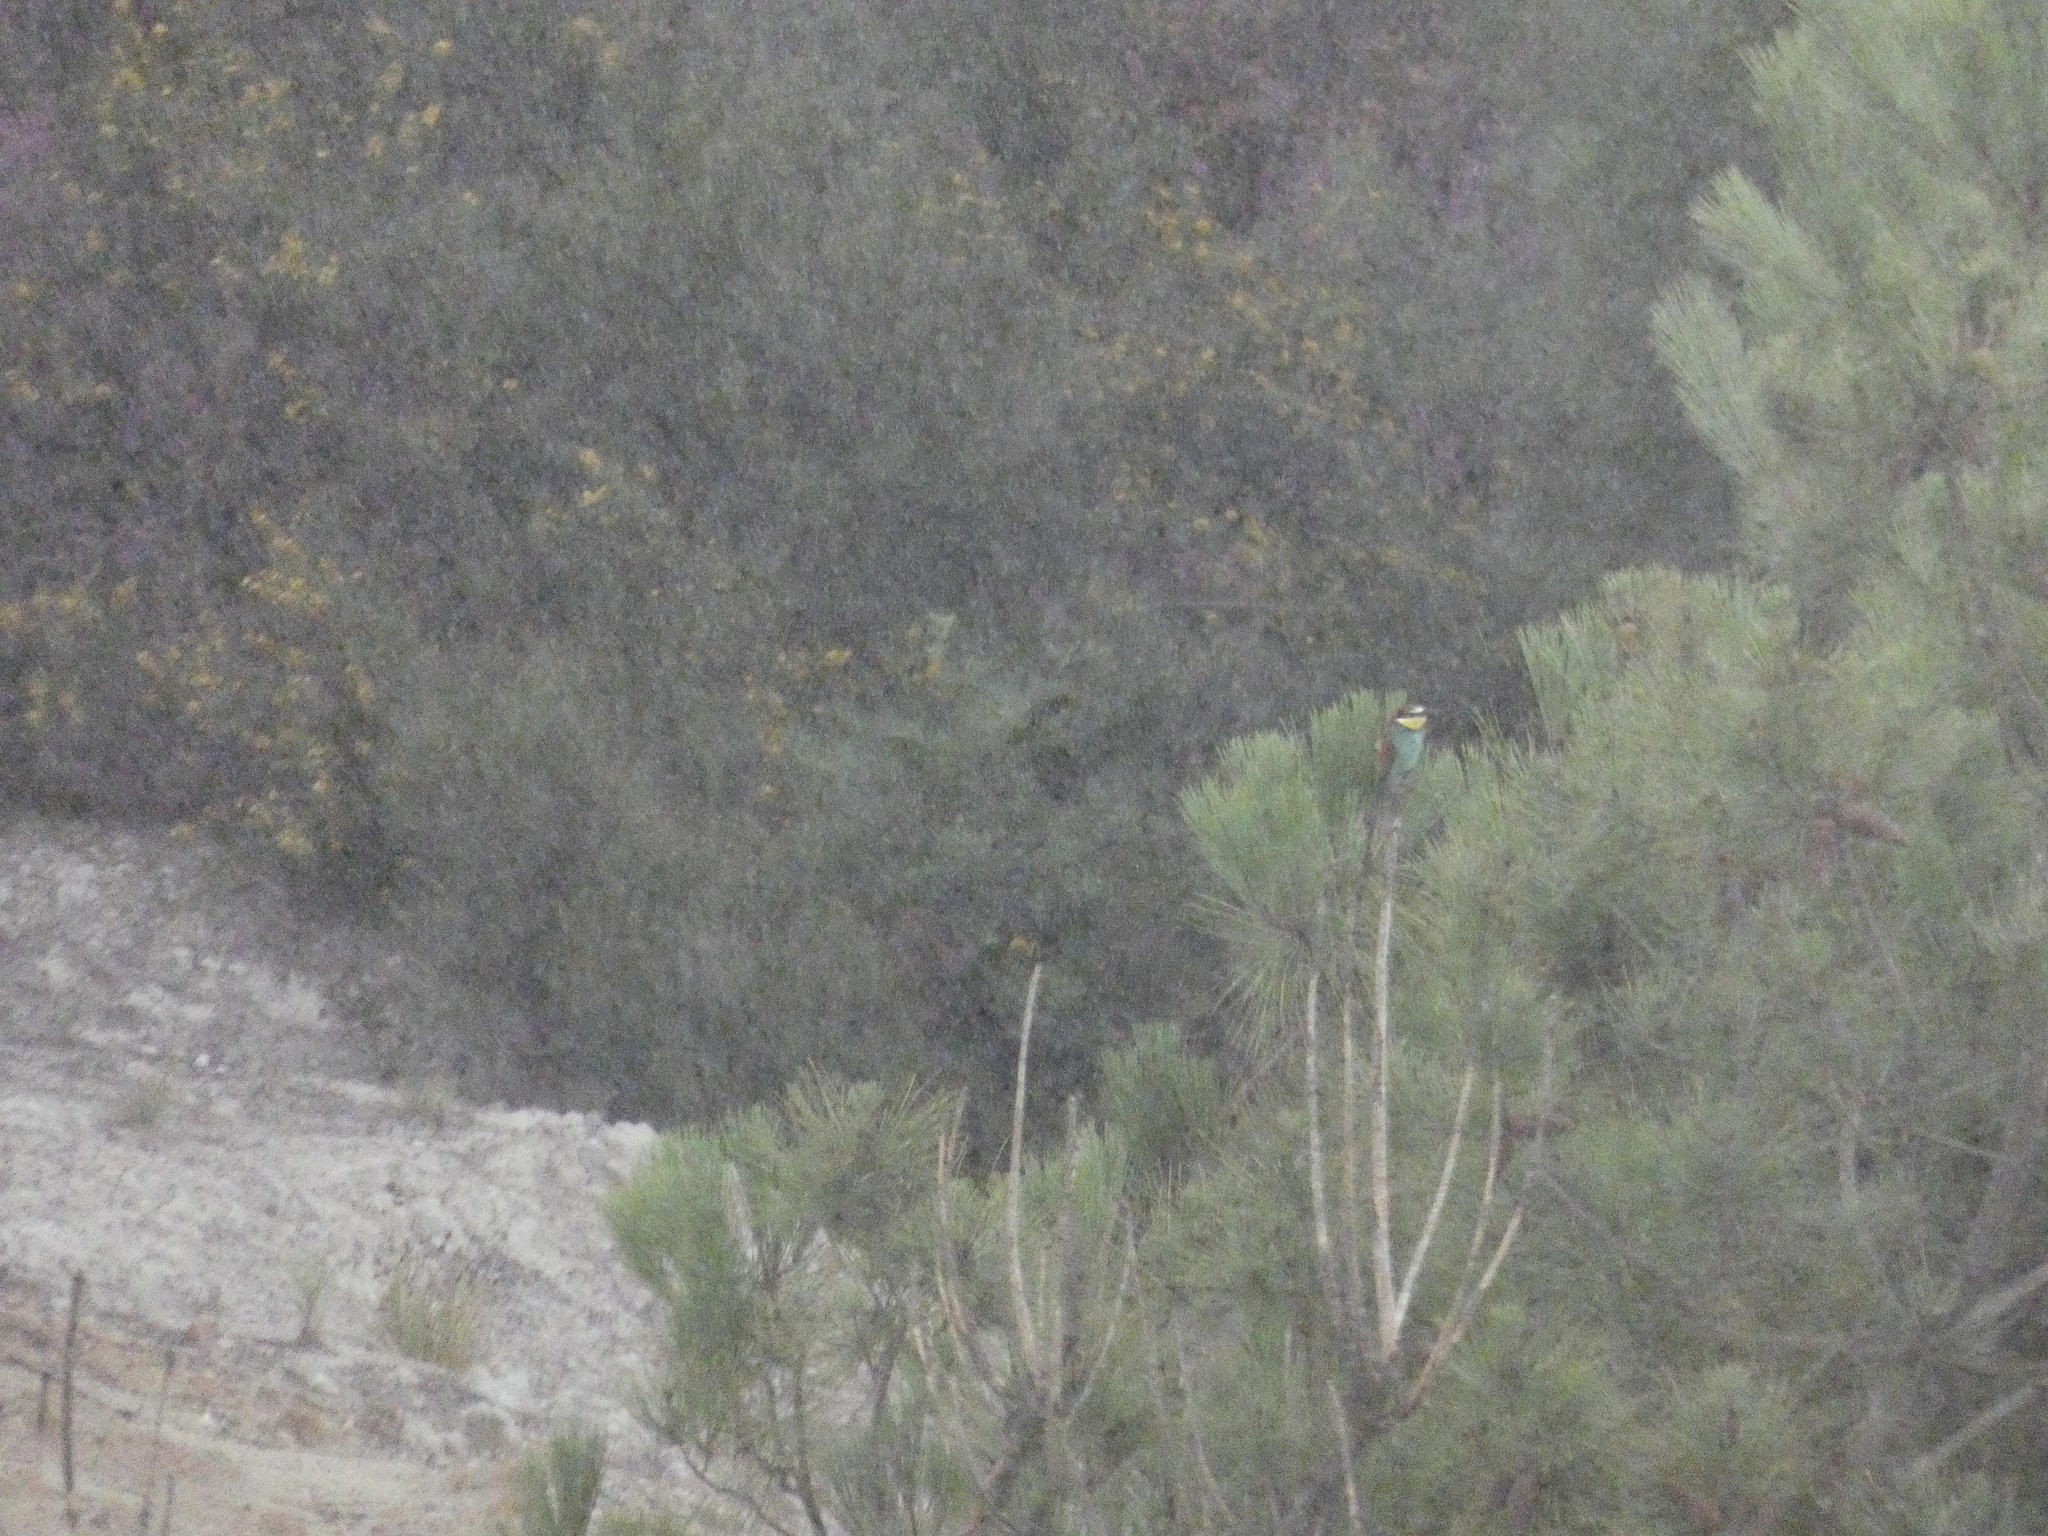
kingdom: Animalia
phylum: Chordata
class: Aves
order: Coraciiformes
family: Meropidae
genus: Merops
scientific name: Merops apiaster
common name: European bee-eater
